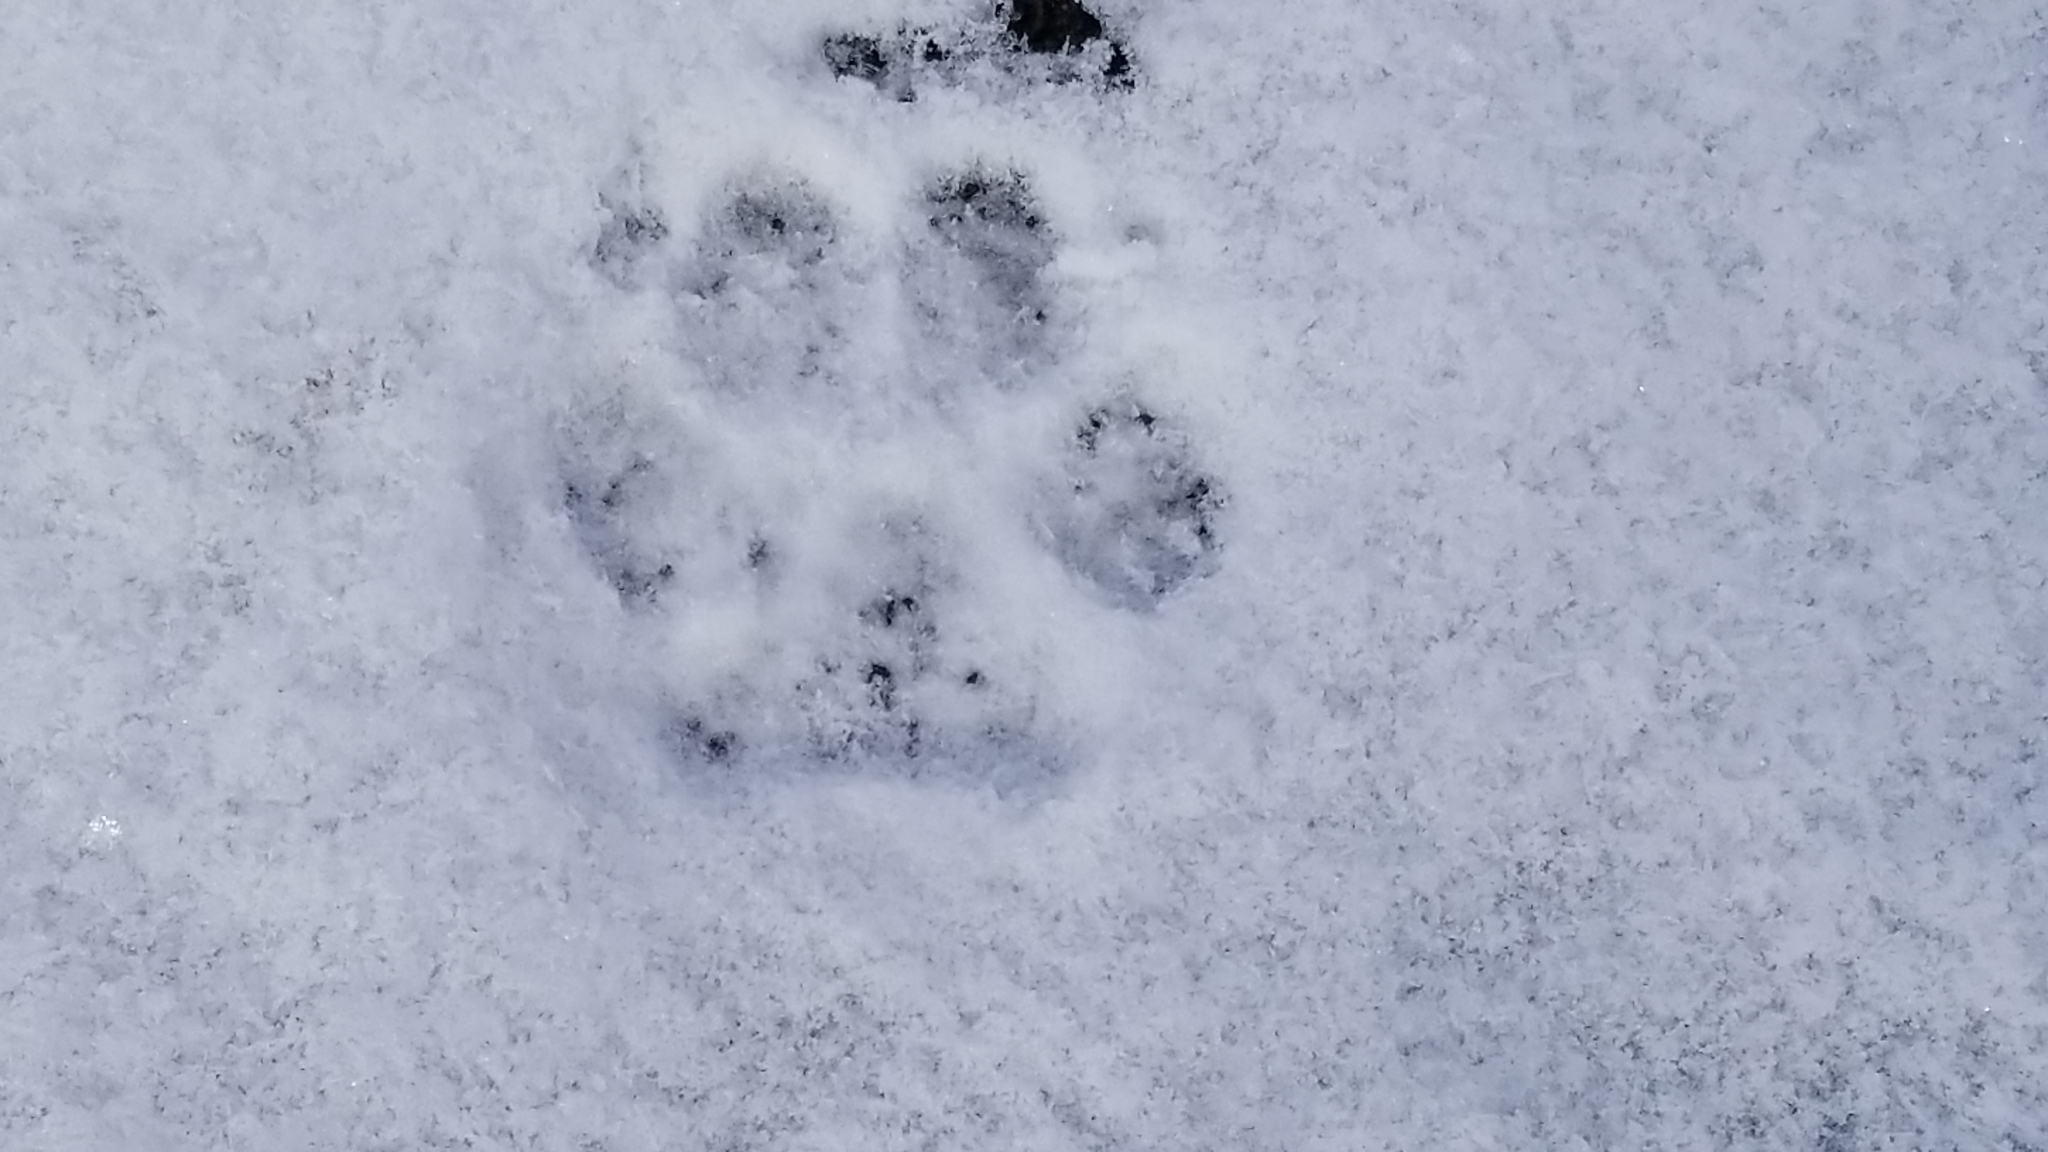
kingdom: Animalia
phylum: Chordata
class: Mammalia
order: Carnivora
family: Canidae
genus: Urocyon
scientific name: Urocyon cinereoargenteus
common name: Gray fox
